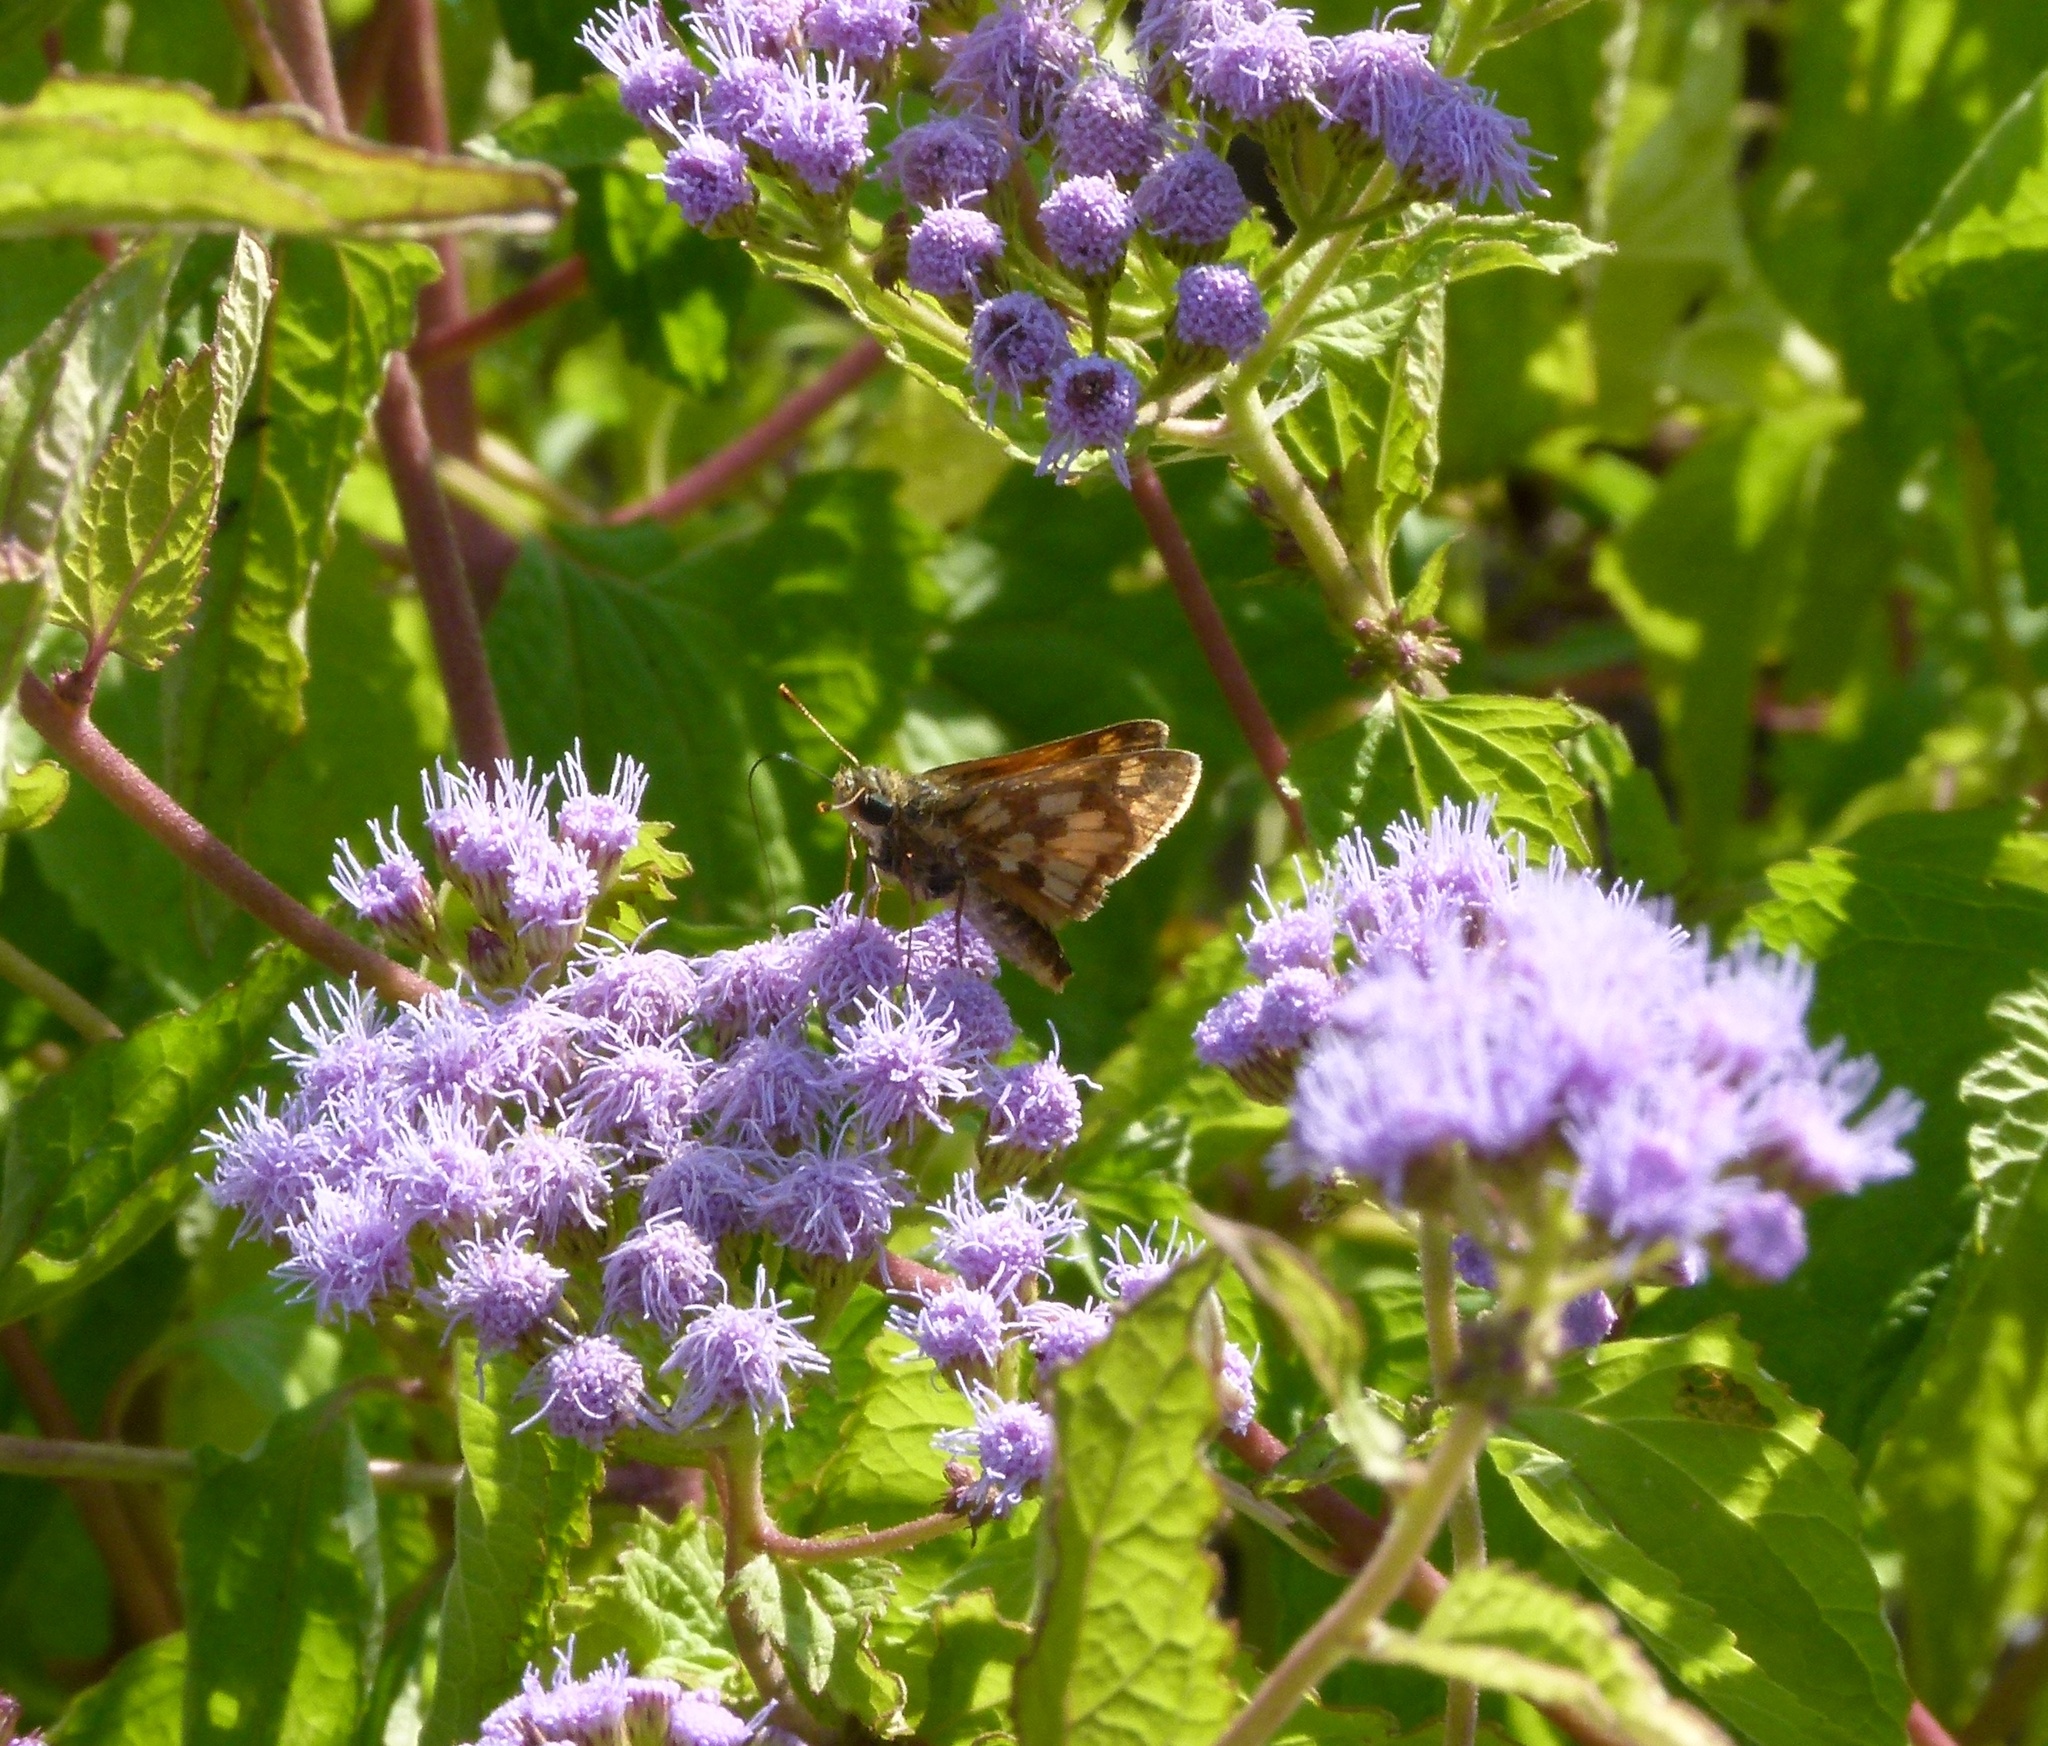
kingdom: Animalia
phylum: Arthropoda
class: Insecta
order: Lepidoptera
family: Hesperiidae
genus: Polites
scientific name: Polites coras
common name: Peck's skipper
